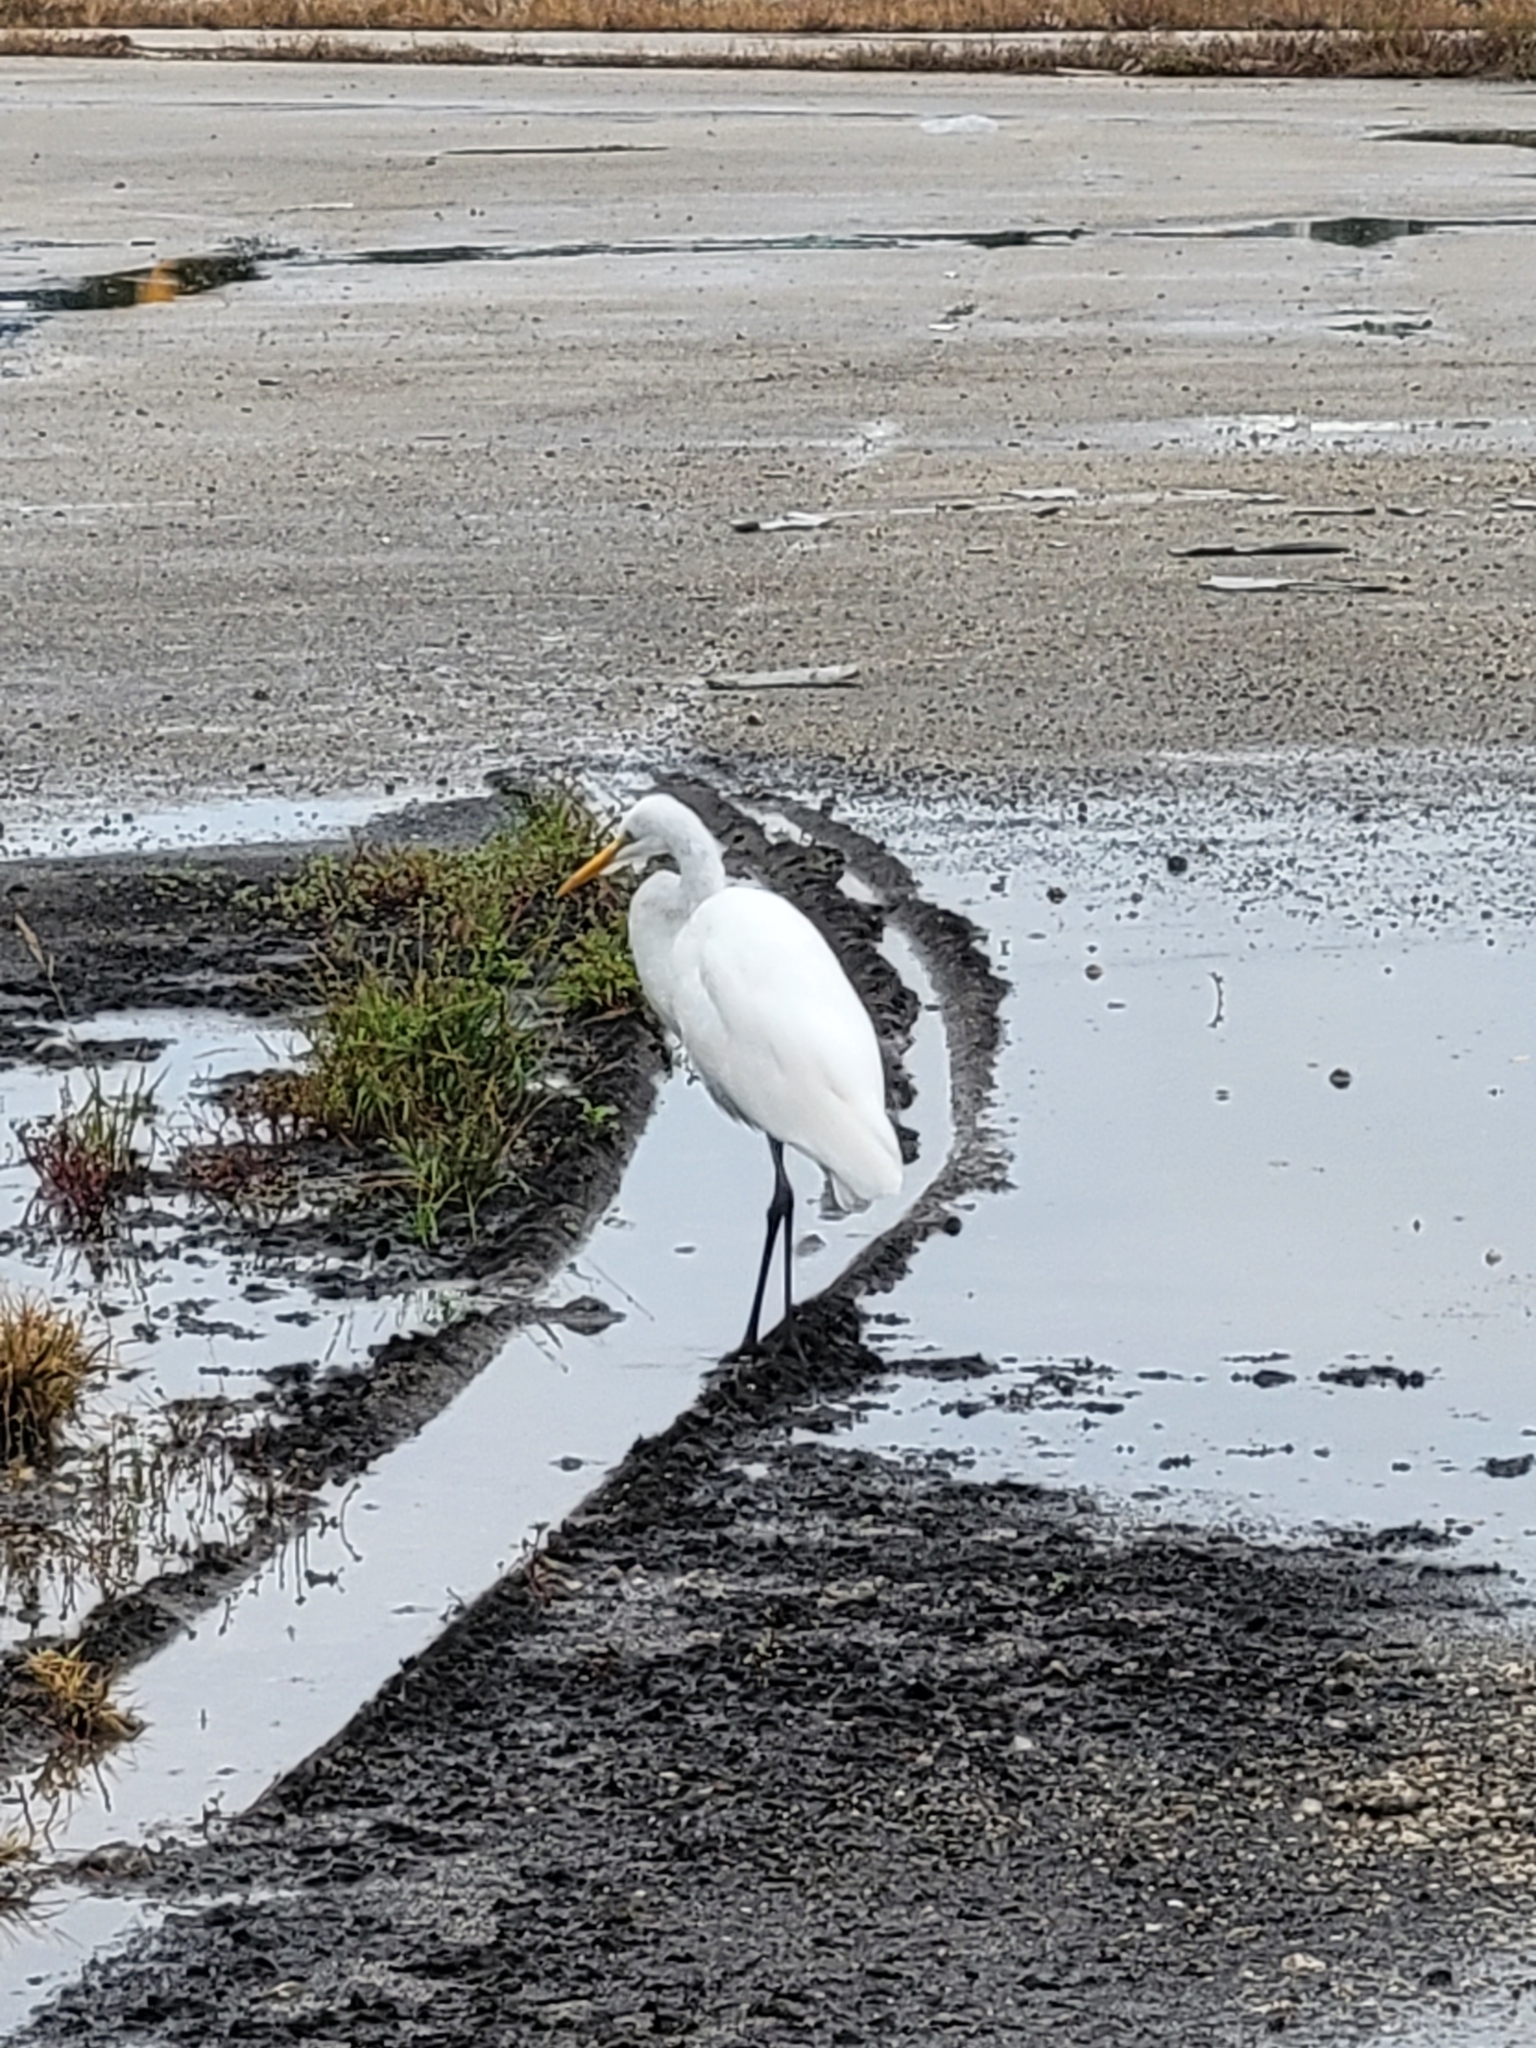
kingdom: Animalia
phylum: Chordata
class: Aves
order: Pelecaniformes
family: Ardeidae
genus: Ardea
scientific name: Ardea alba
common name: Great egret
